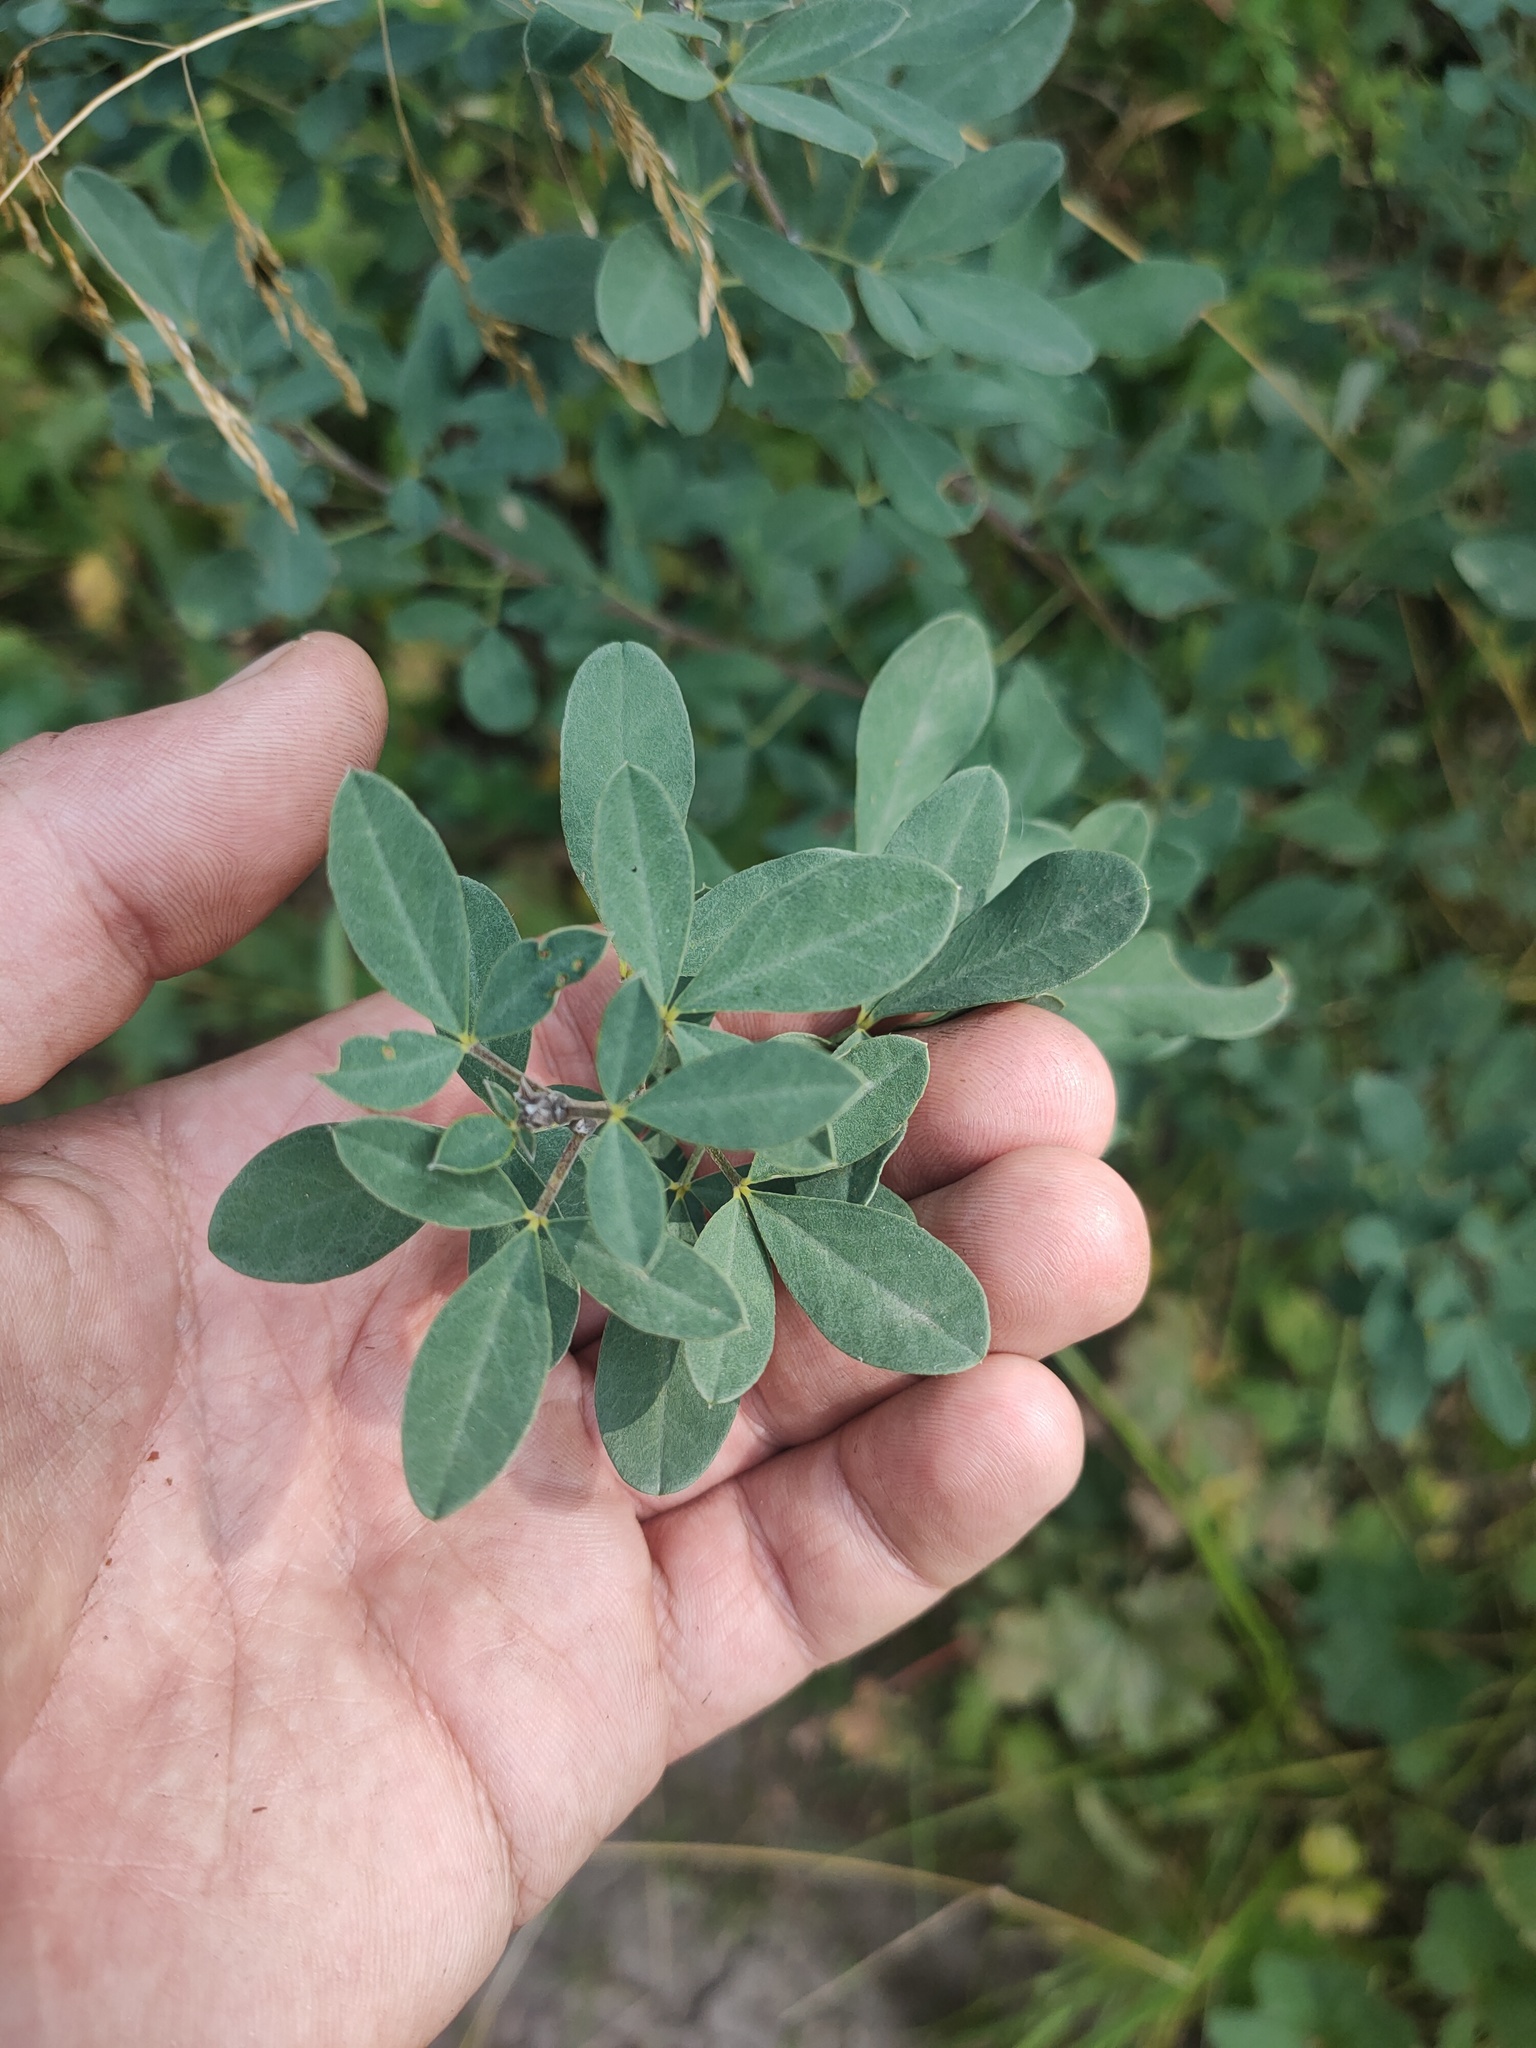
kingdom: Plantae
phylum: Tracheophyta
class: Magnoliopsida
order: Fabales
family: Fabaceae
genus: Chamaecytisus
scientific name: Chamaecytisus ruthenicus
